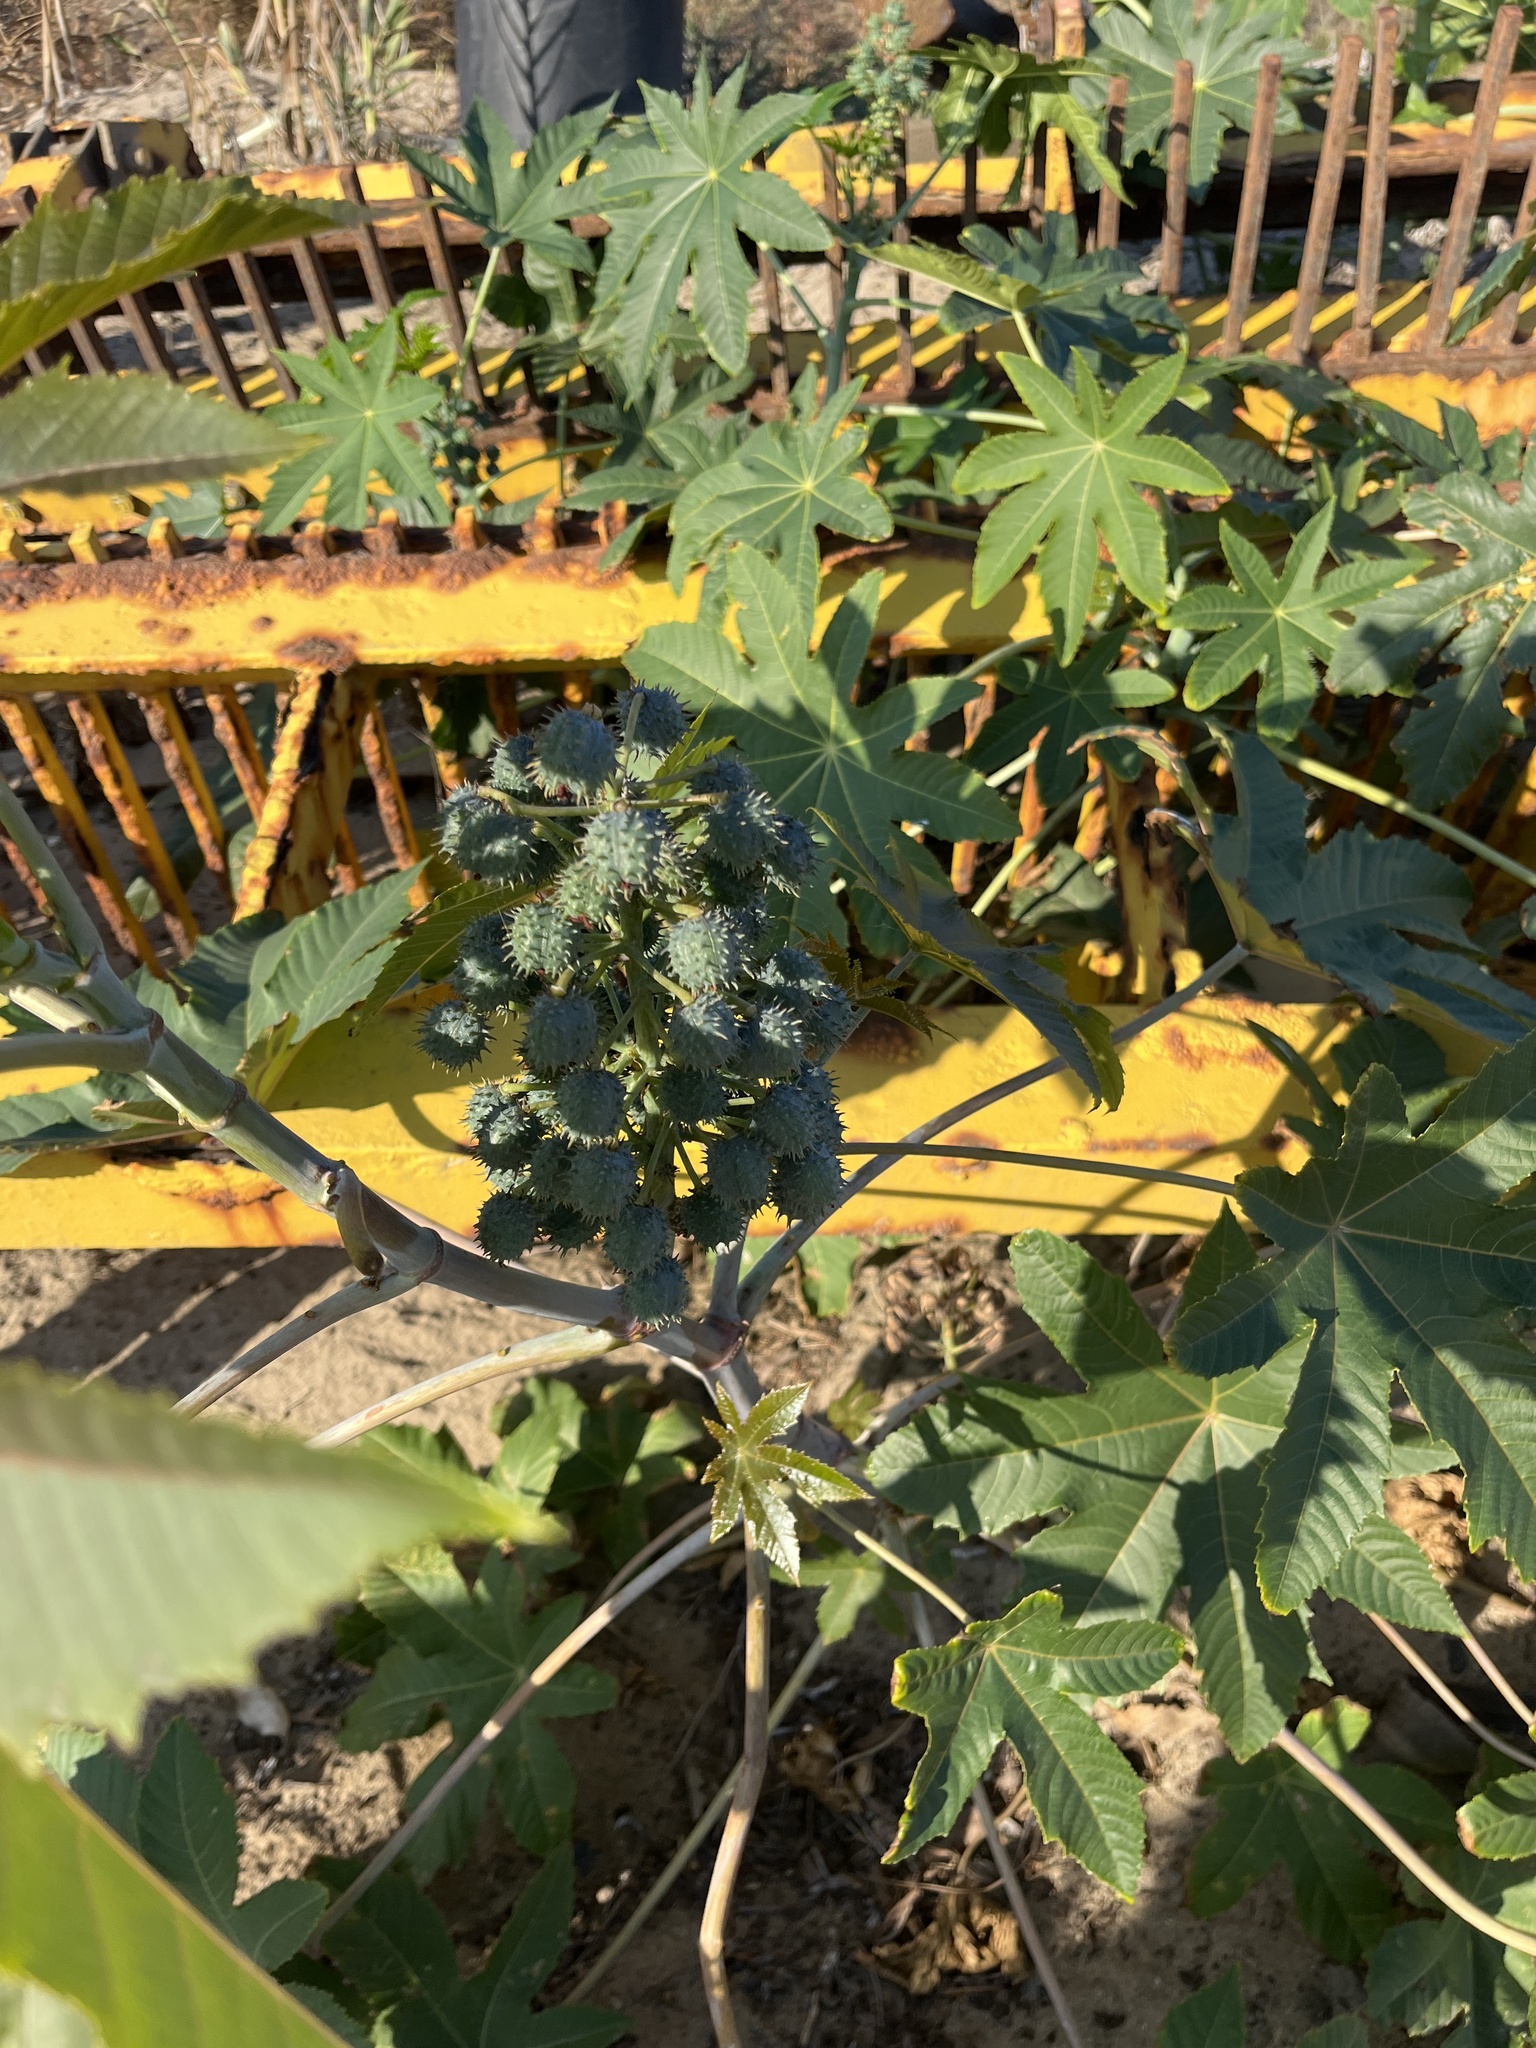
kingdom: Plantae
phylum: Tracheophyta
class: Magnoliopsida
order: Malpighiales
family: Euphorbiaceae
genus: Ricinus
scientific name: Ricinus communis
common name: Castor-oil-plant
